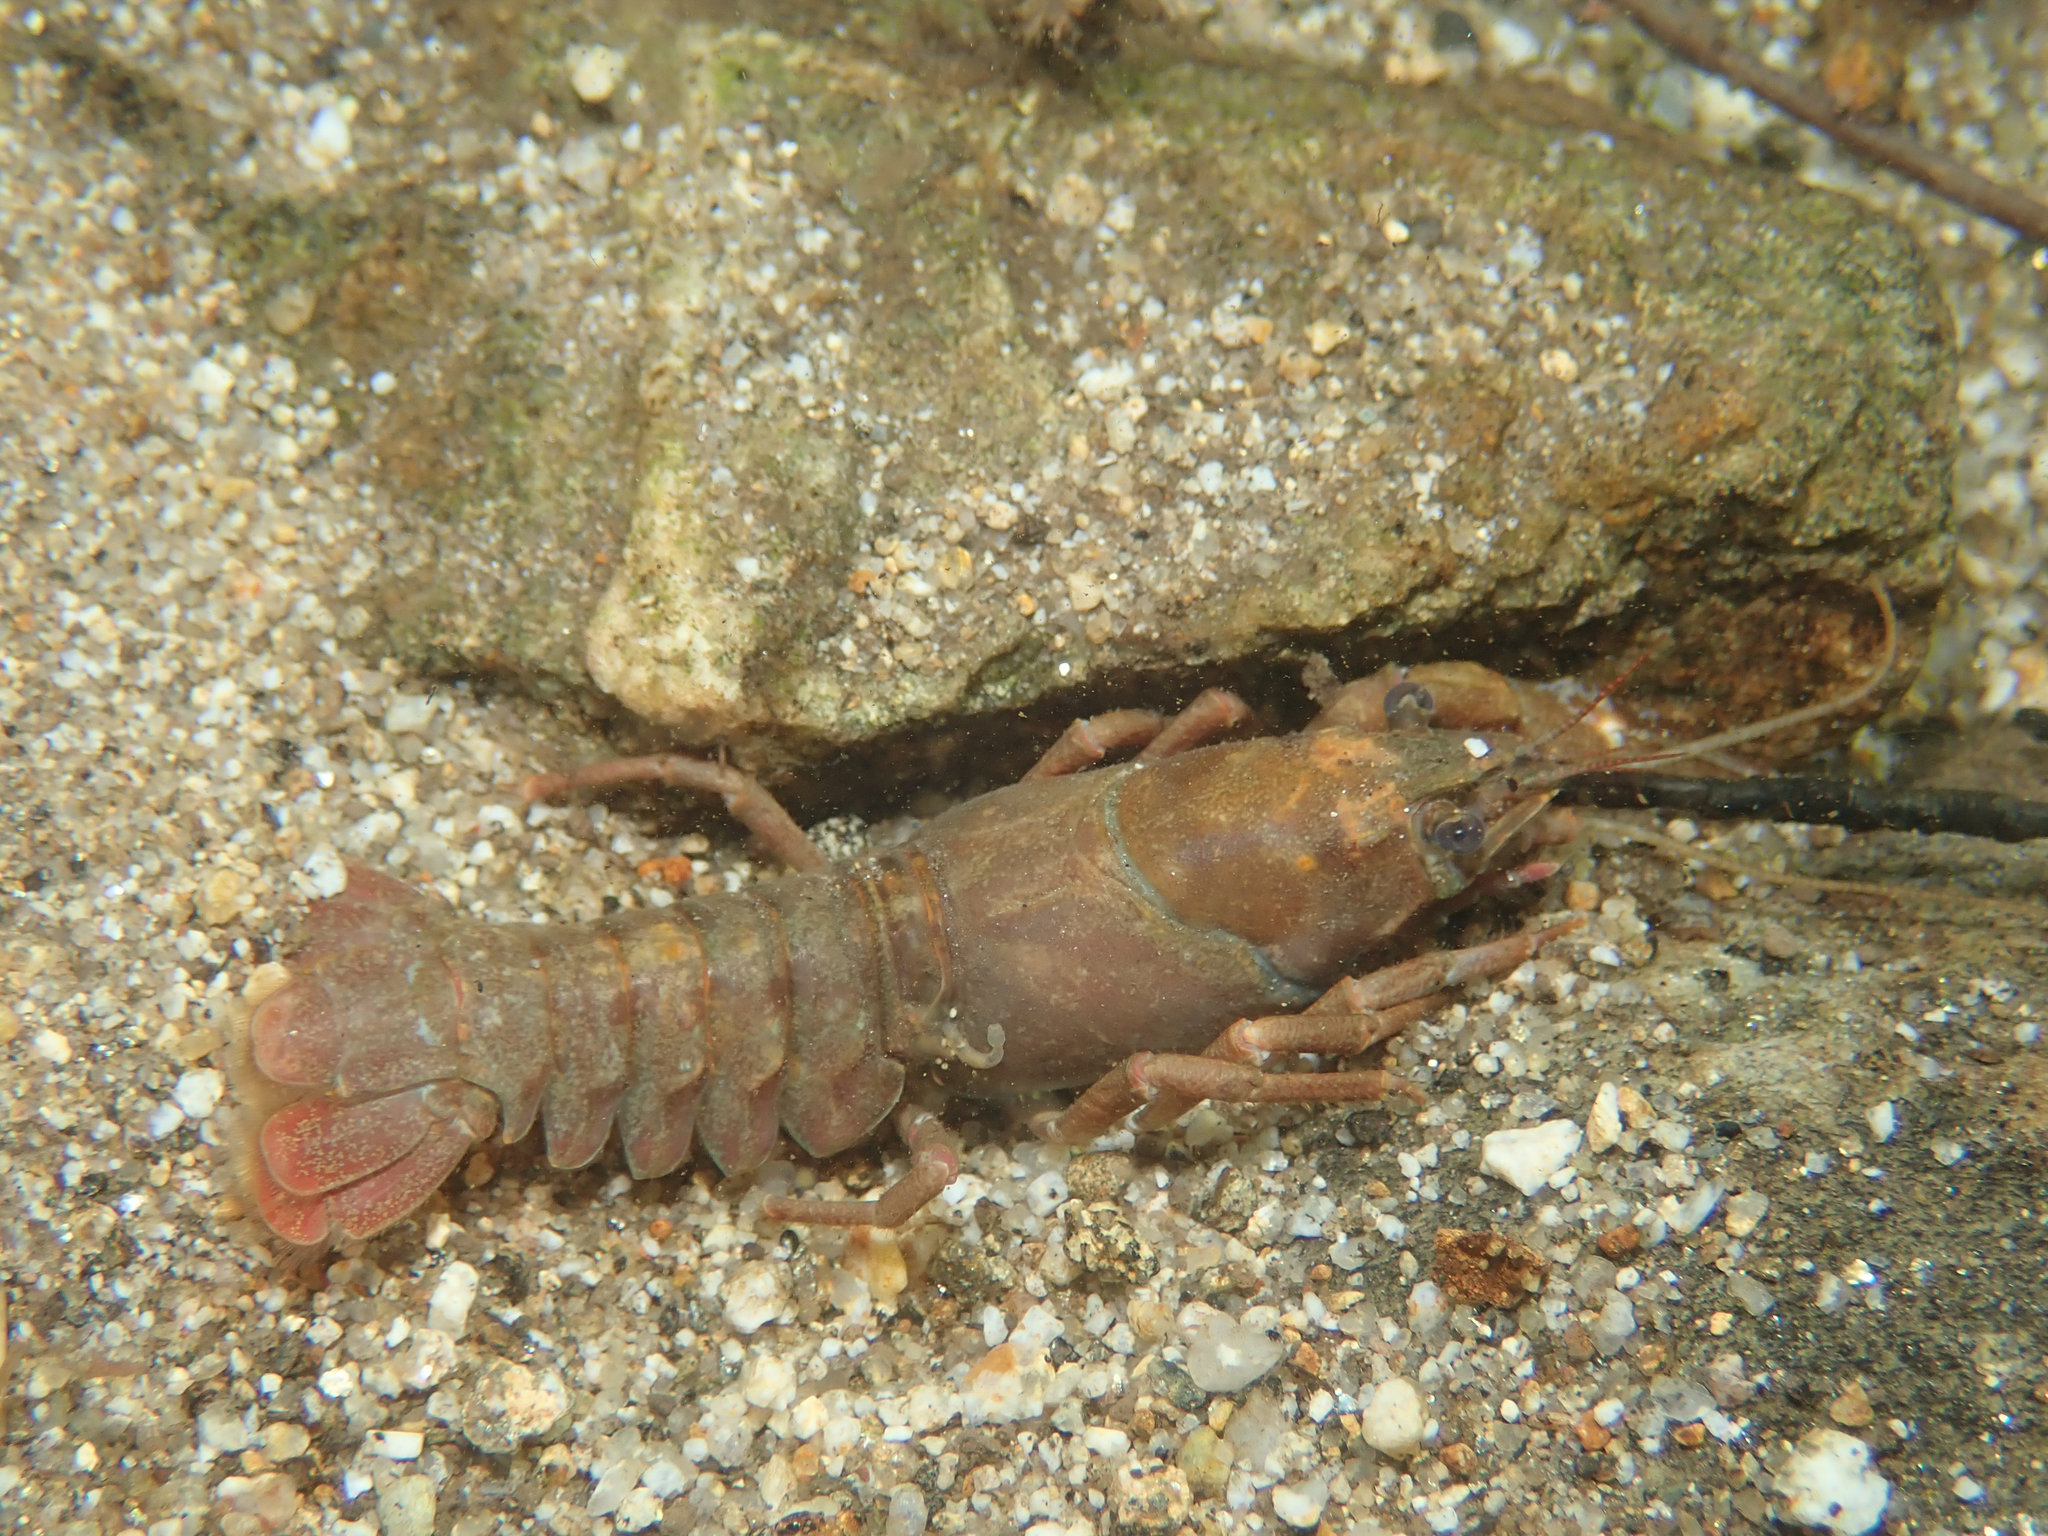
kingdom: Animalia
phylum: Arthropoda
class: Malacostraca
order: Decapoda
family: Astacidae
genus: Pacifastacus
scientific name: Pacifastacus leniusculus
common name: Signal crayfish
